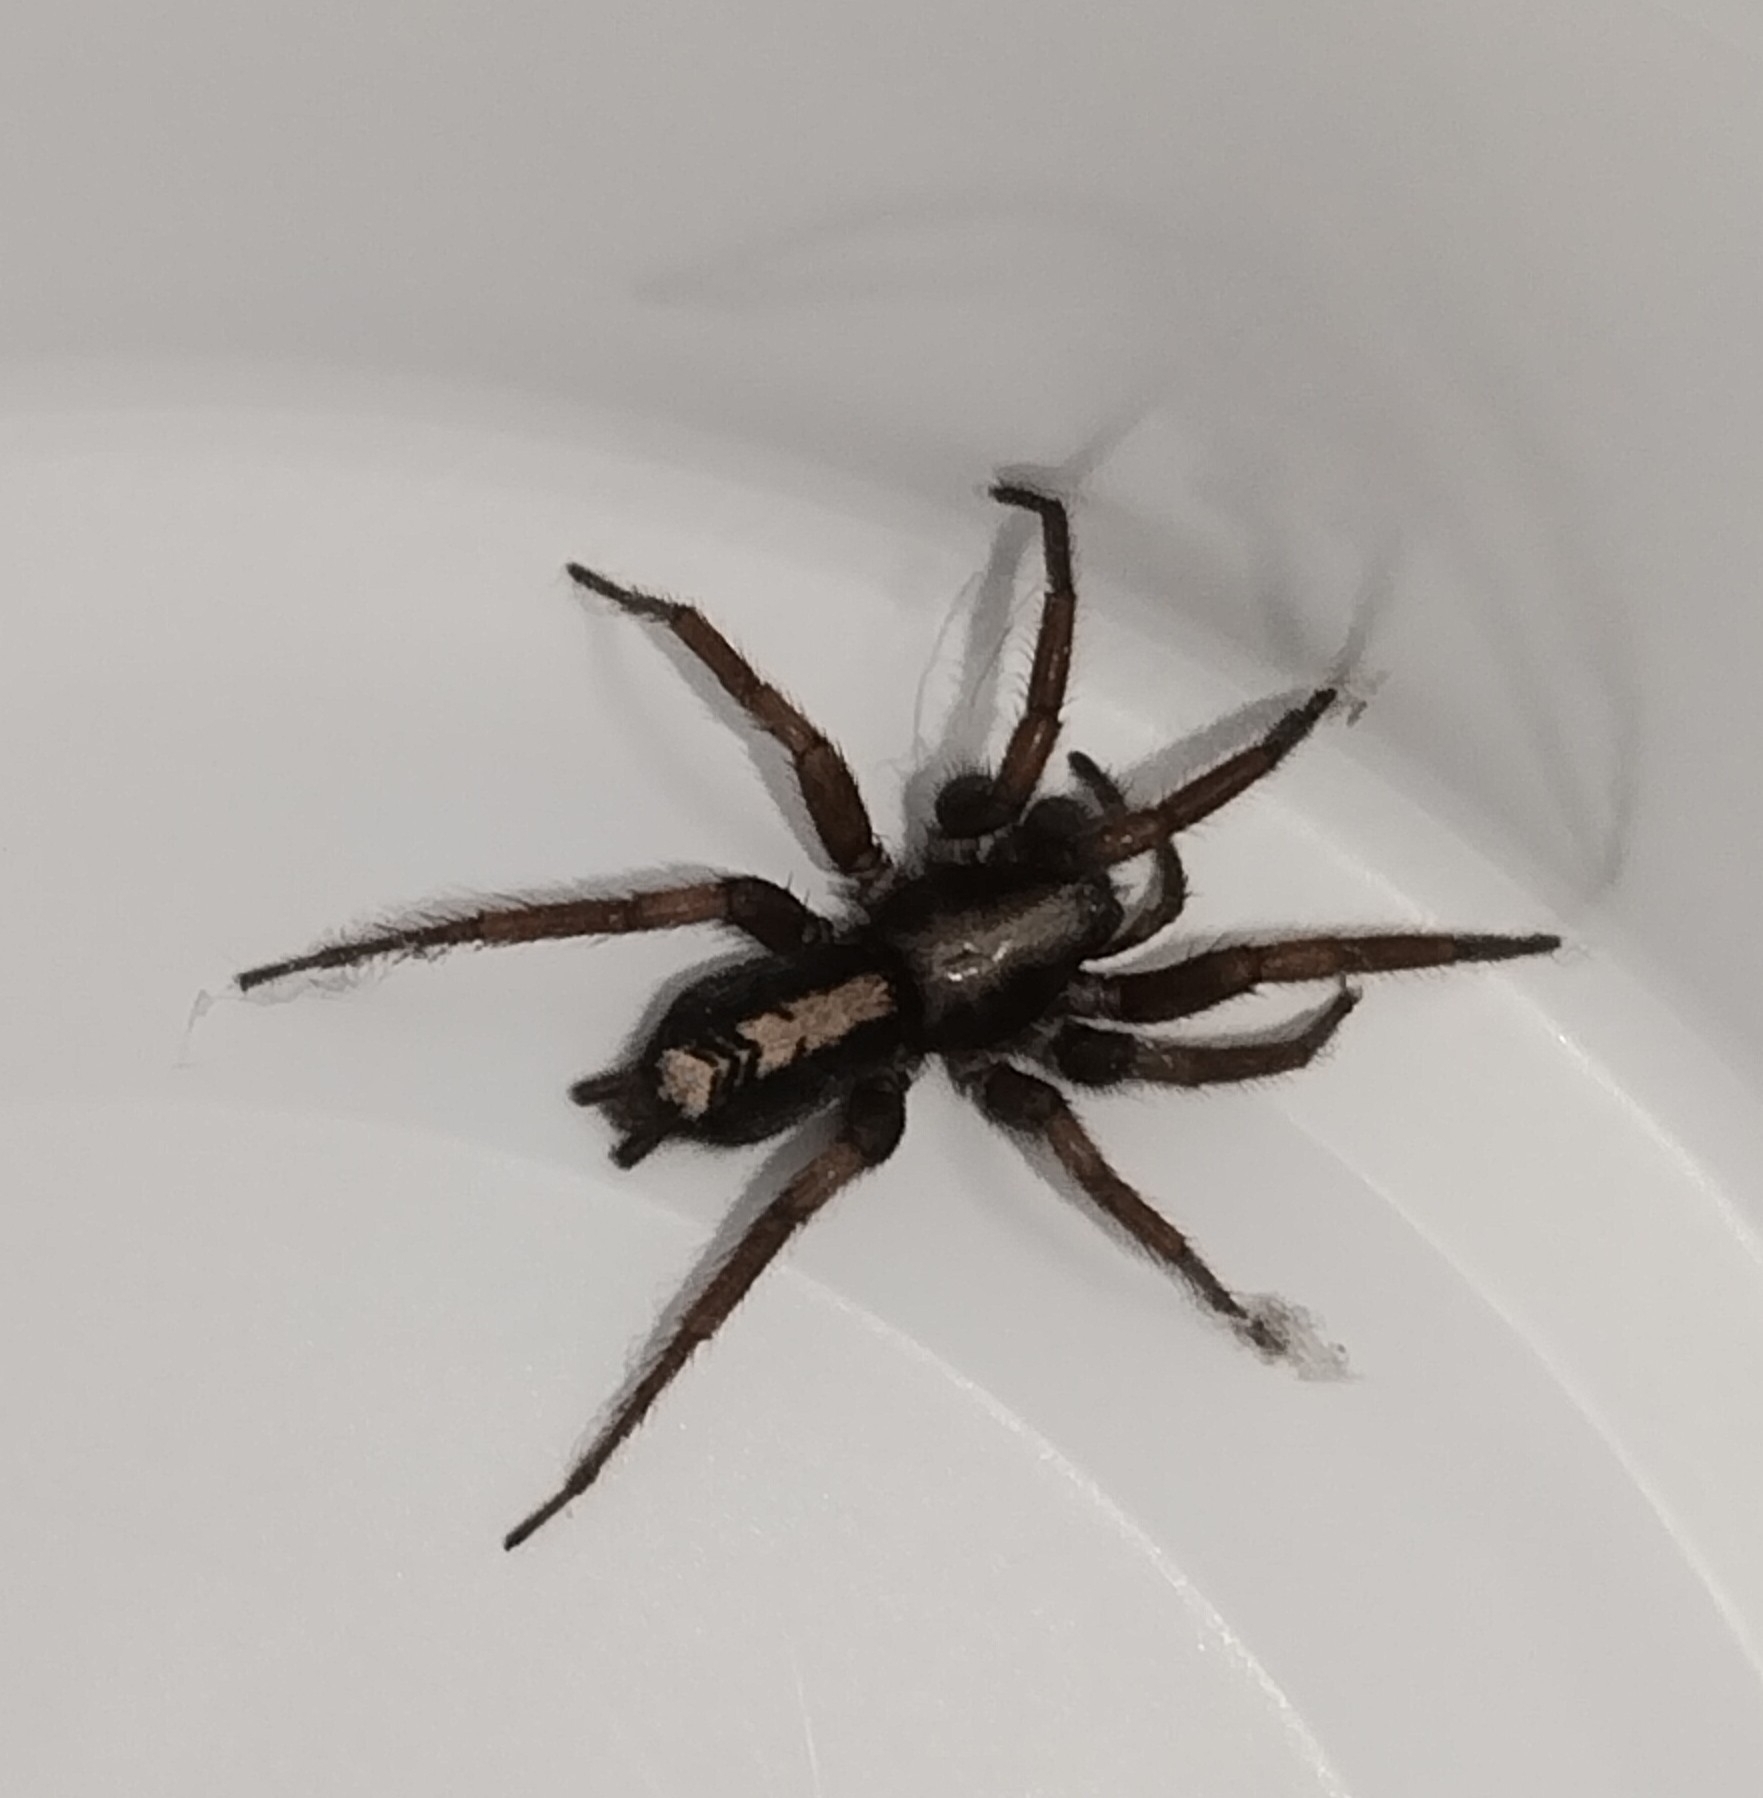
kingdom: Animalia
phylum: Arthropoda
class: Arachnida
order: Araneae
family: Gnaphosidae
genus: Herpyllus
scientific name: Herpyllus ecclesiasticus
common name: Eastern parson spider
